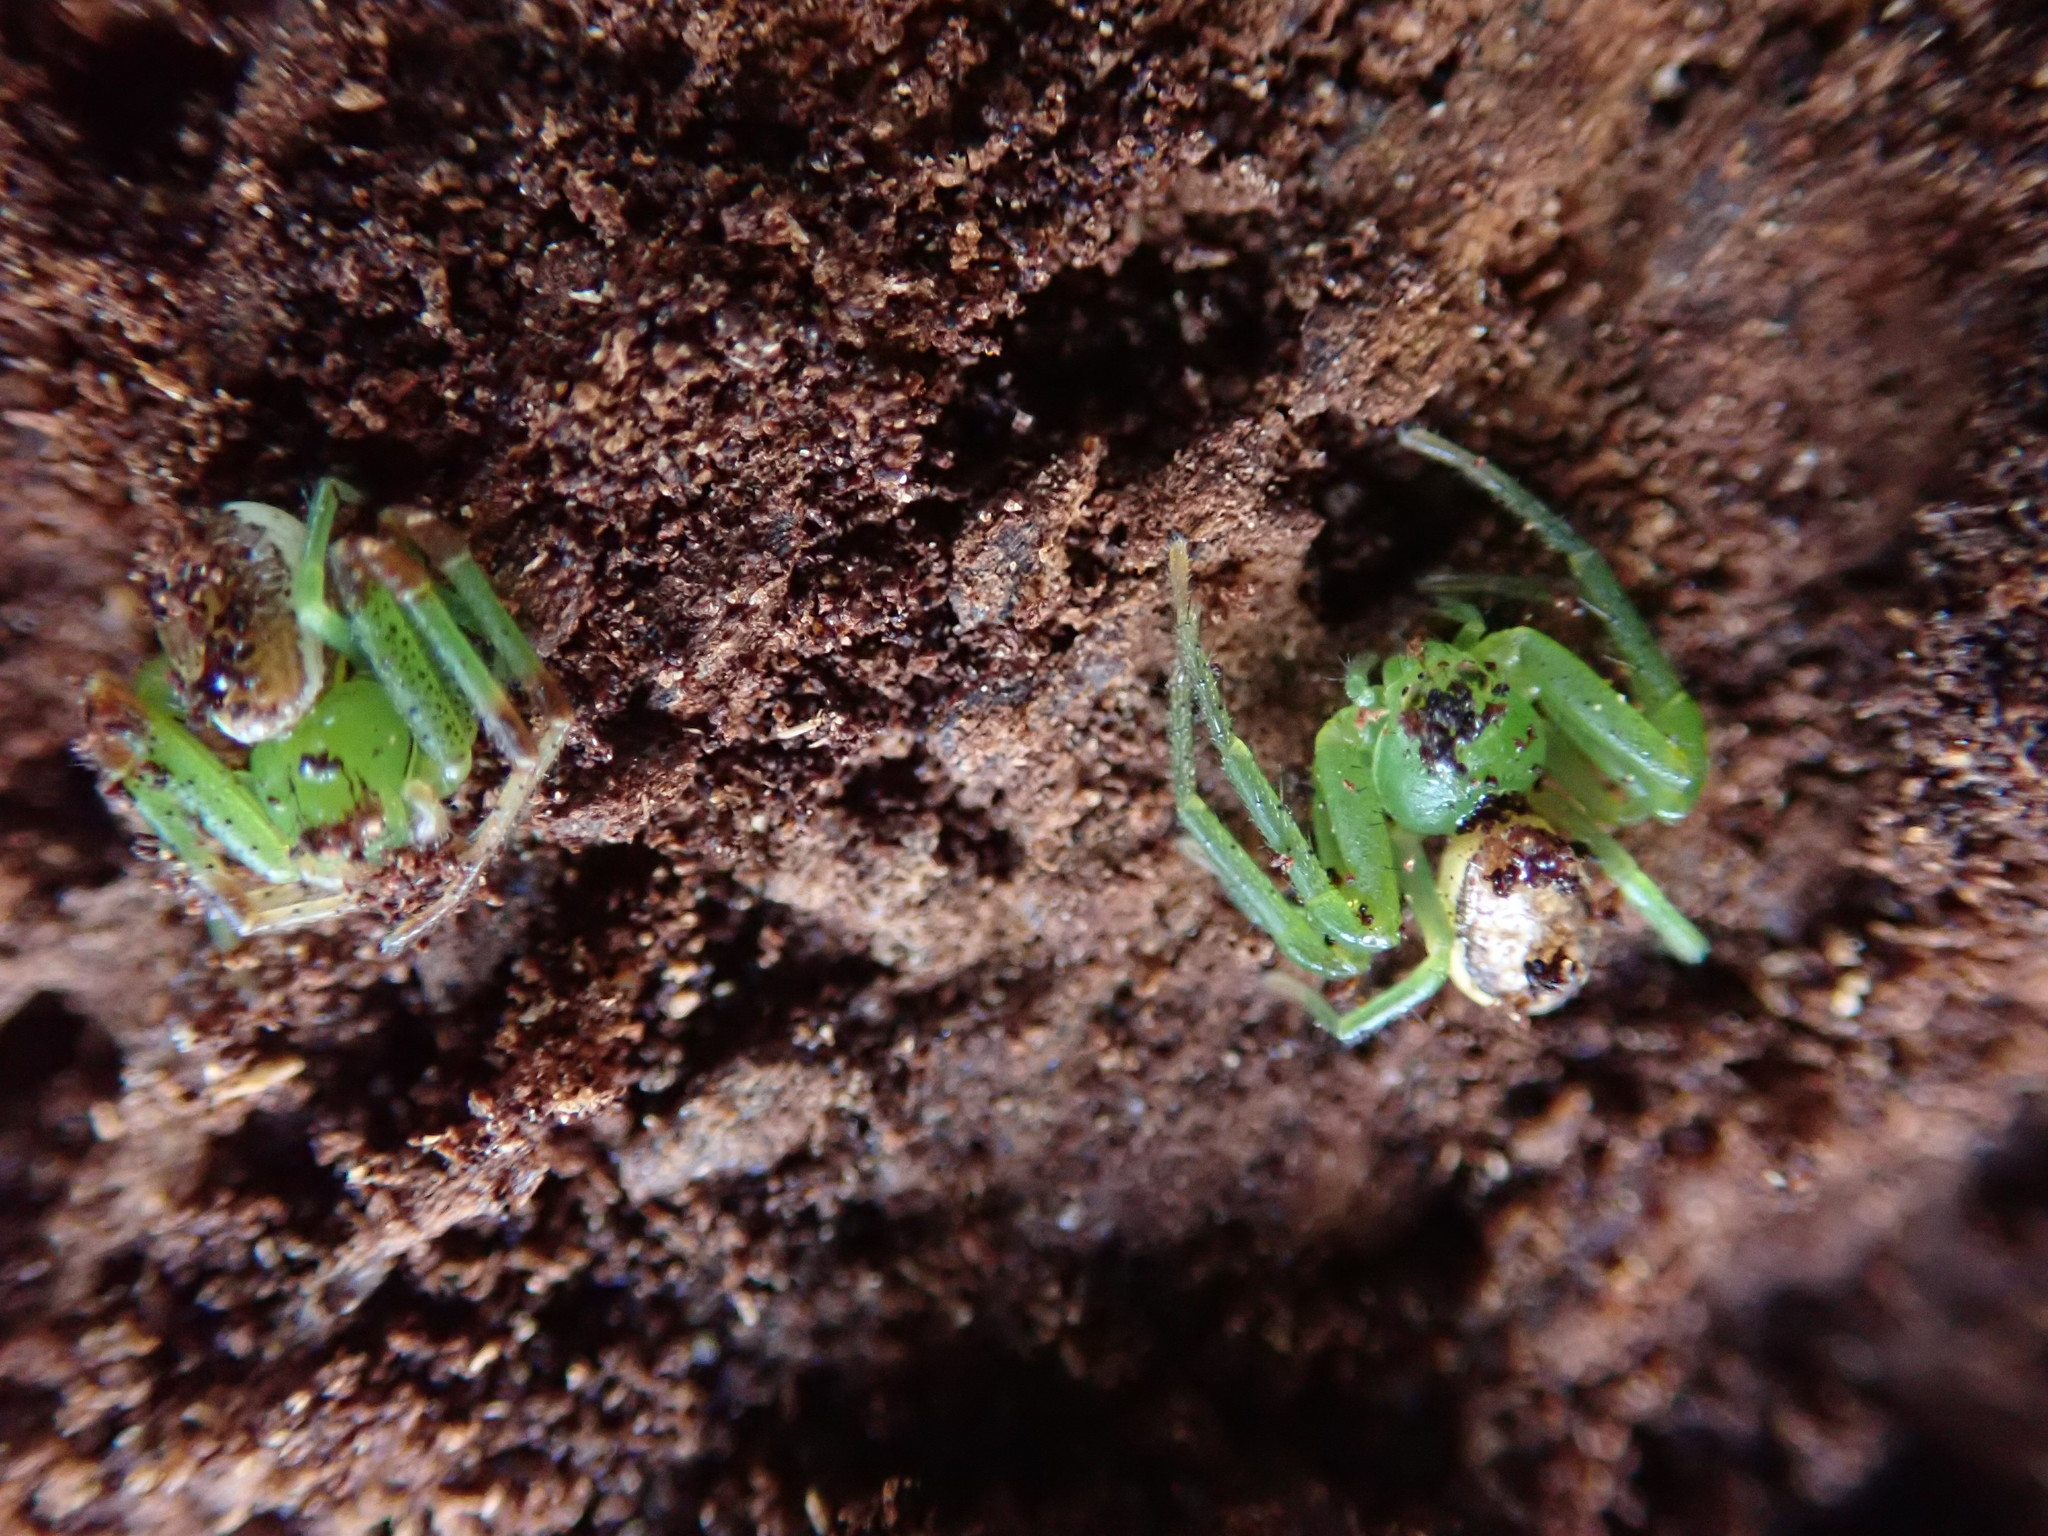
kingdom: Animalia
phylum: Arthropoda
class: Arachnida
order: Araneae
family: Thomisidae
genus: Diaea
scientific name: Diaea dorsata
